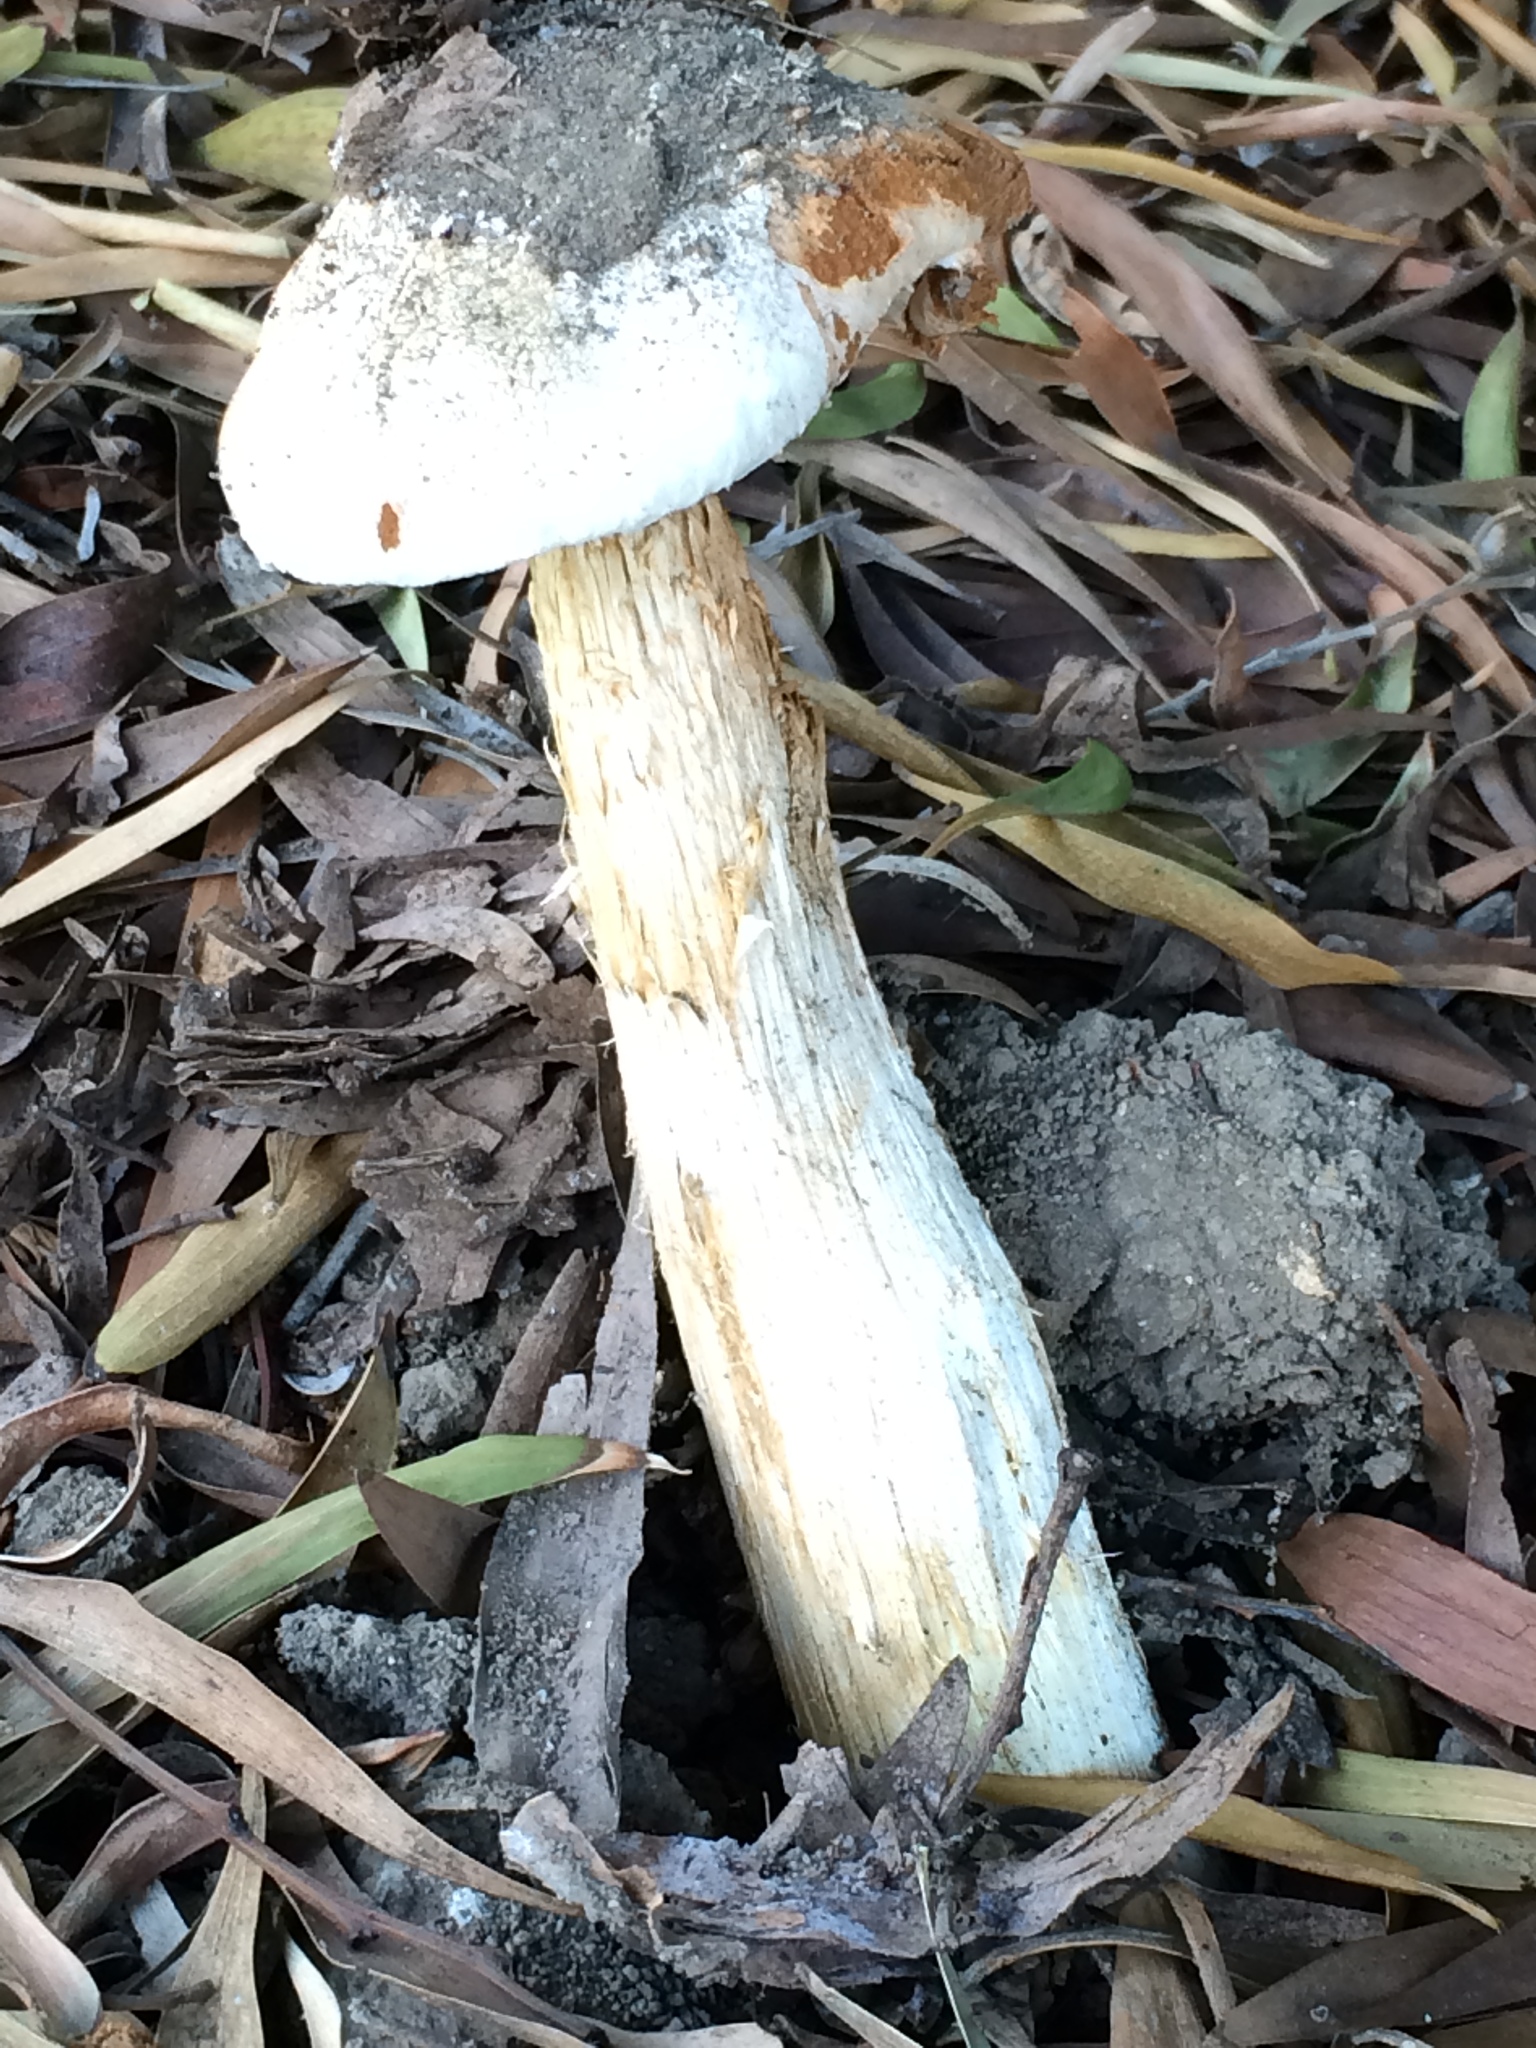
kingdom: Fungi
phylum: Basidiomycota
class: Agaricomycetes
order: Agaricales
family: Agaricaceae
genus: Battarrea
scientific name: Battarrea phalloides
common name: Sandy stiltball
